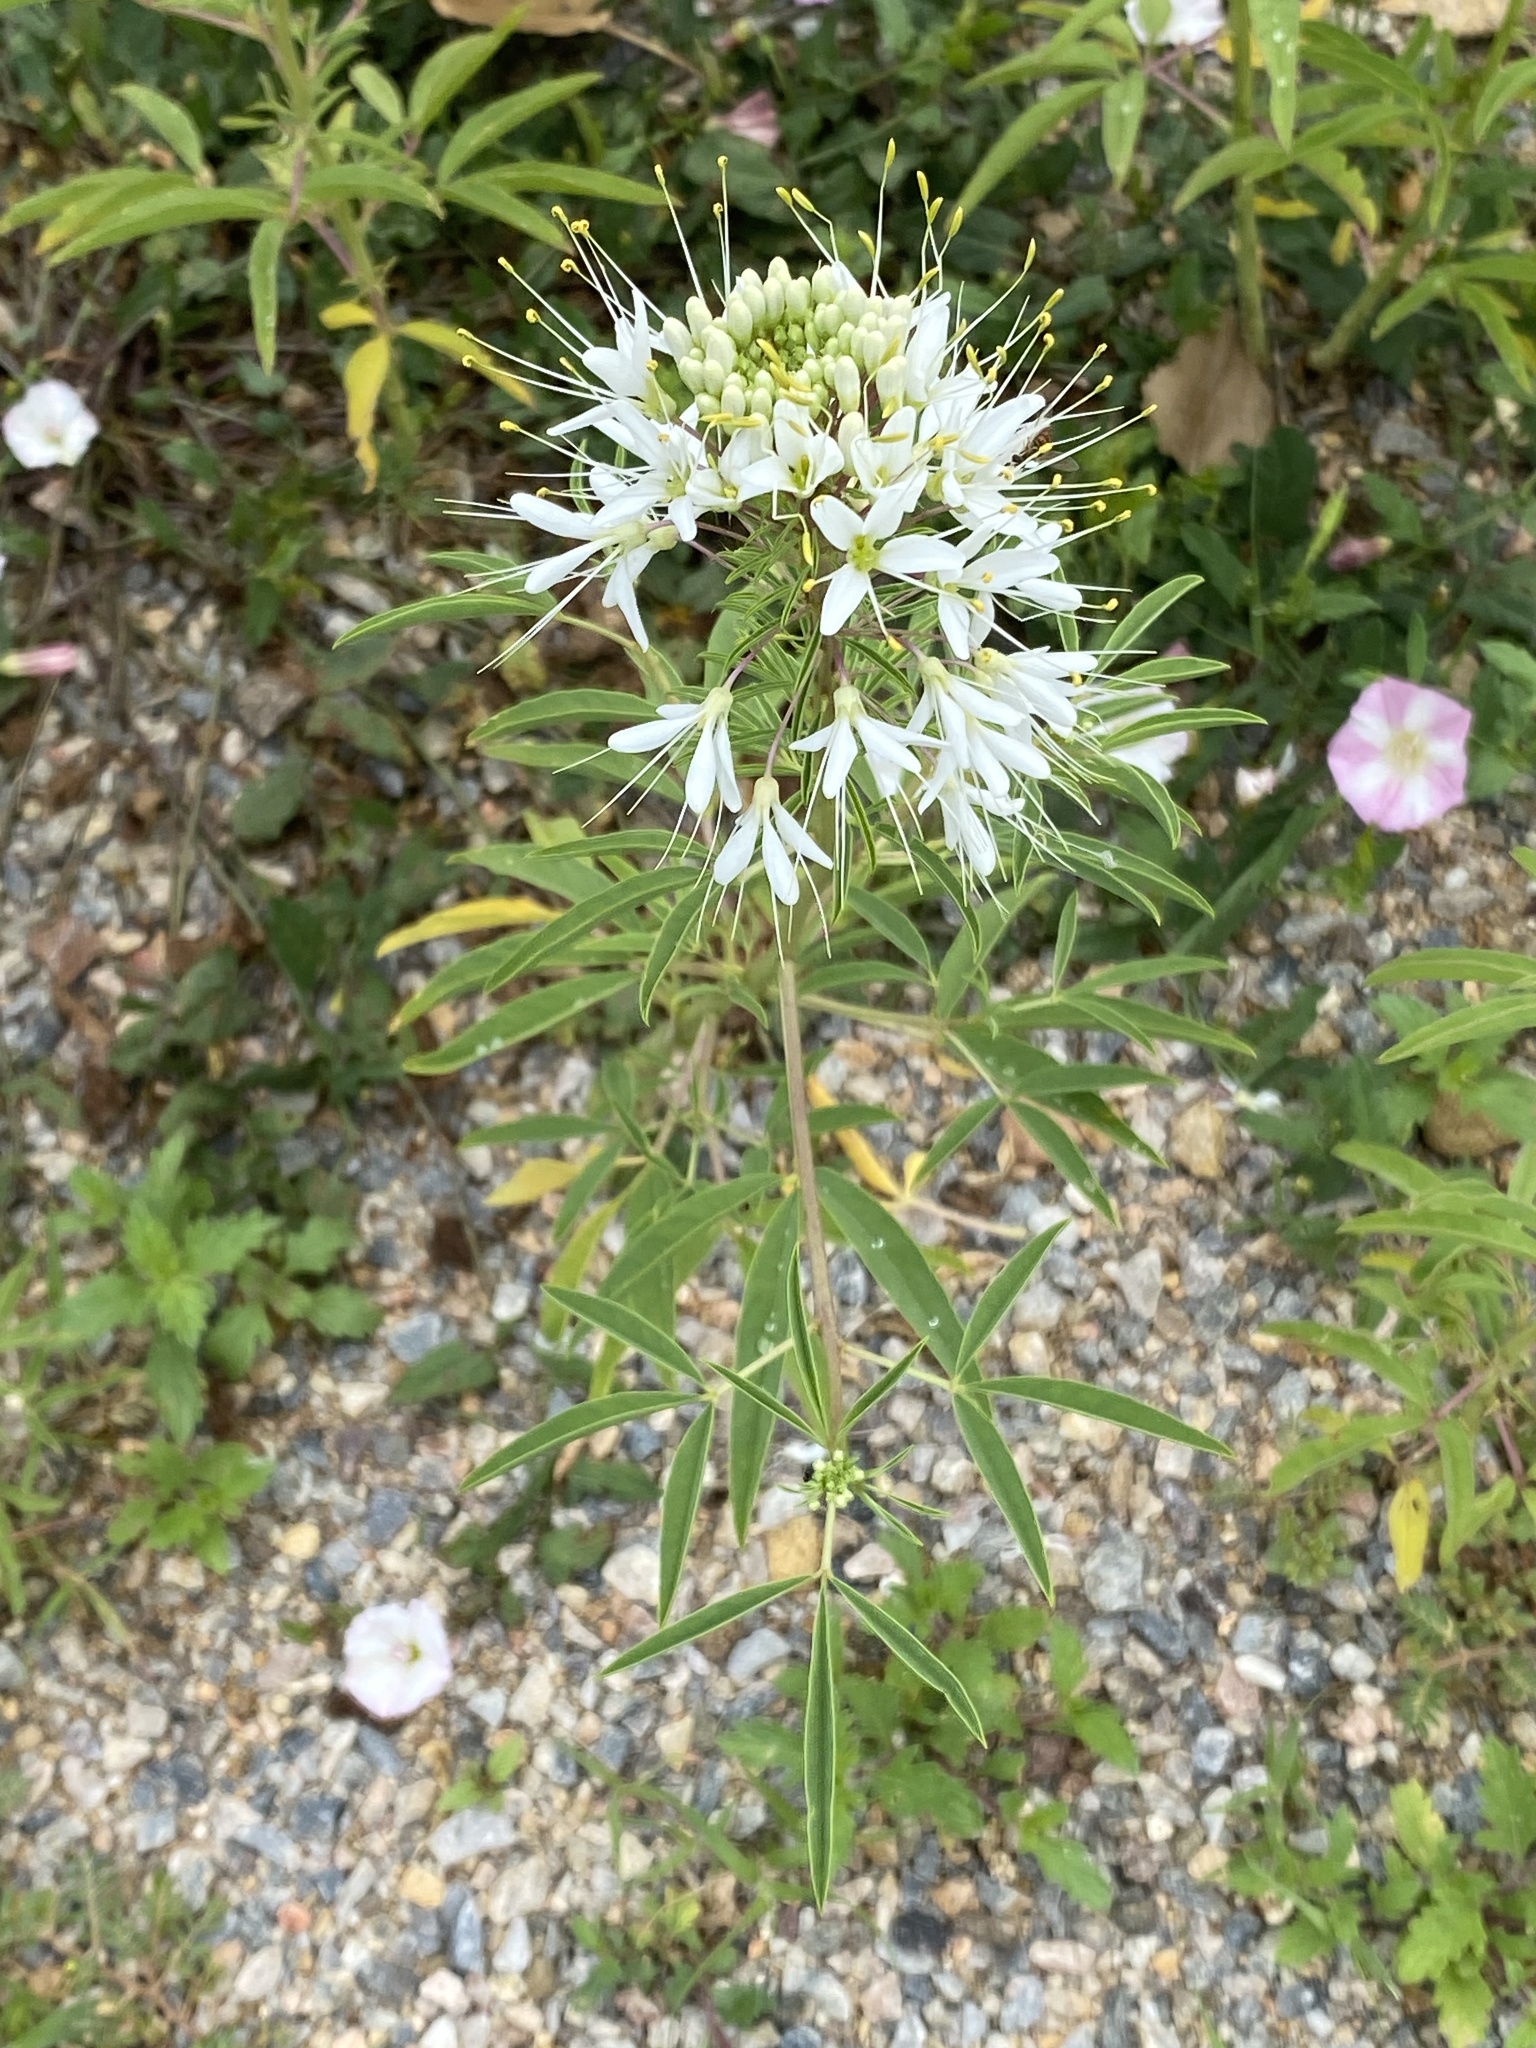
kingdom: Plantae
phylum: Tracheophyta
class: Magnoliopsida
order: Brassicales
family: Cleomaceae
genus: Cleomella
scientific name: Cleomella serrulata
